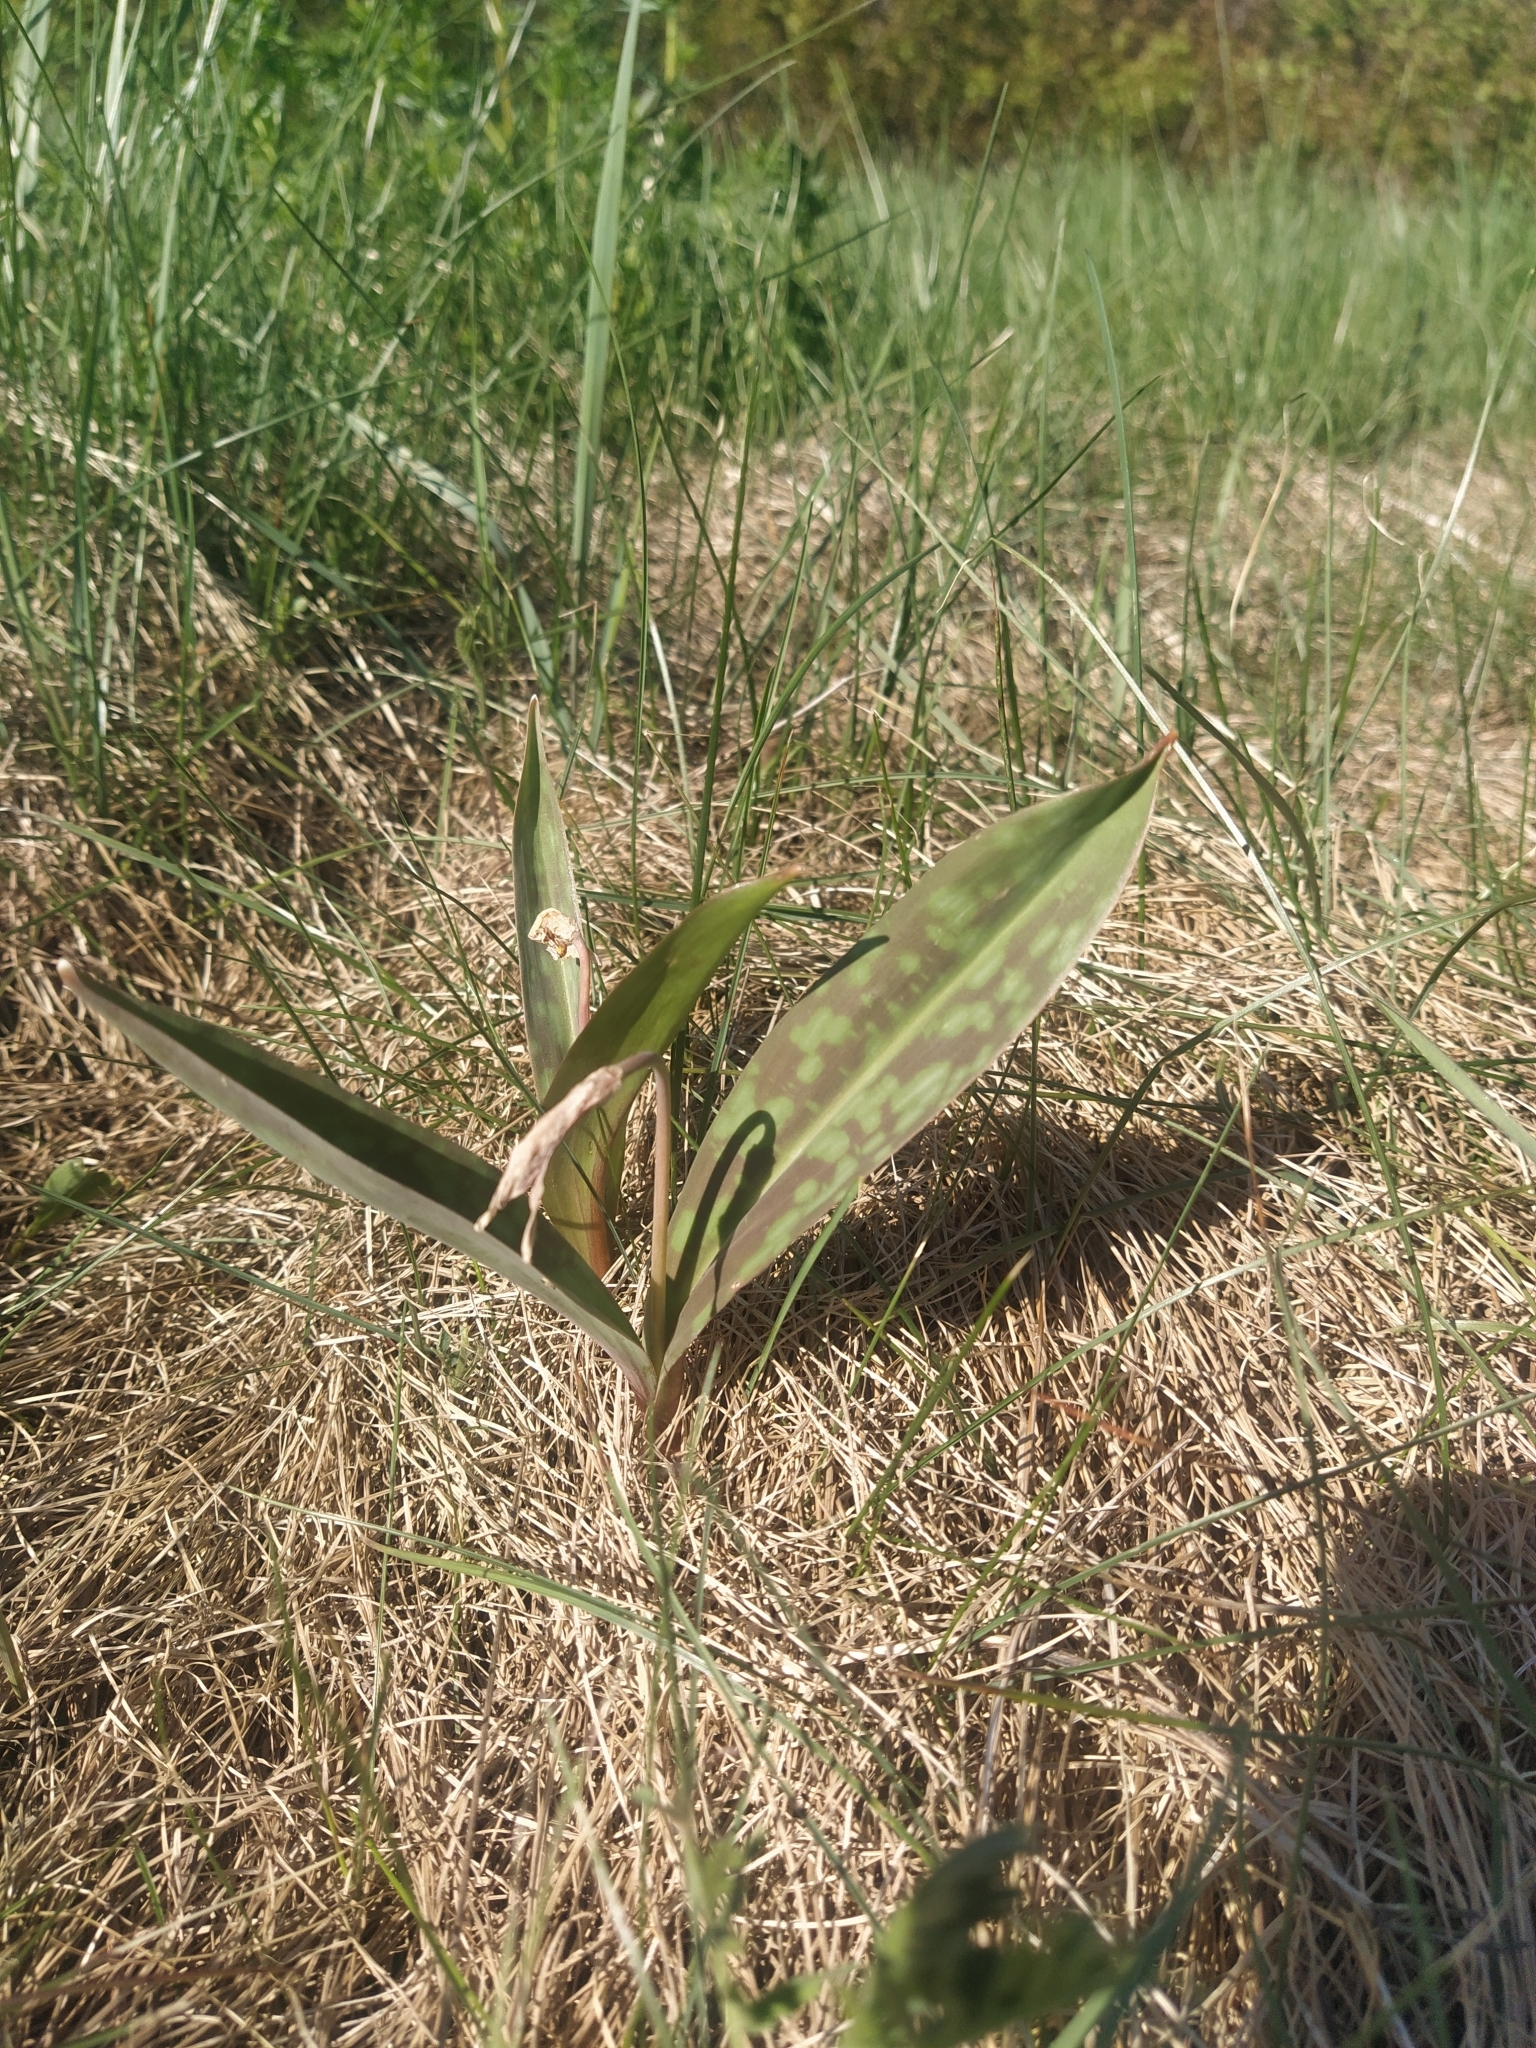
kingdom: Plantae
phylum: Tracheophyta
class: Liliopsida
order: Liliales
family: Liliaceae
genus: Erythronium
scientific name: Erythronium americanum
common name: Yellow adder's-tongue
